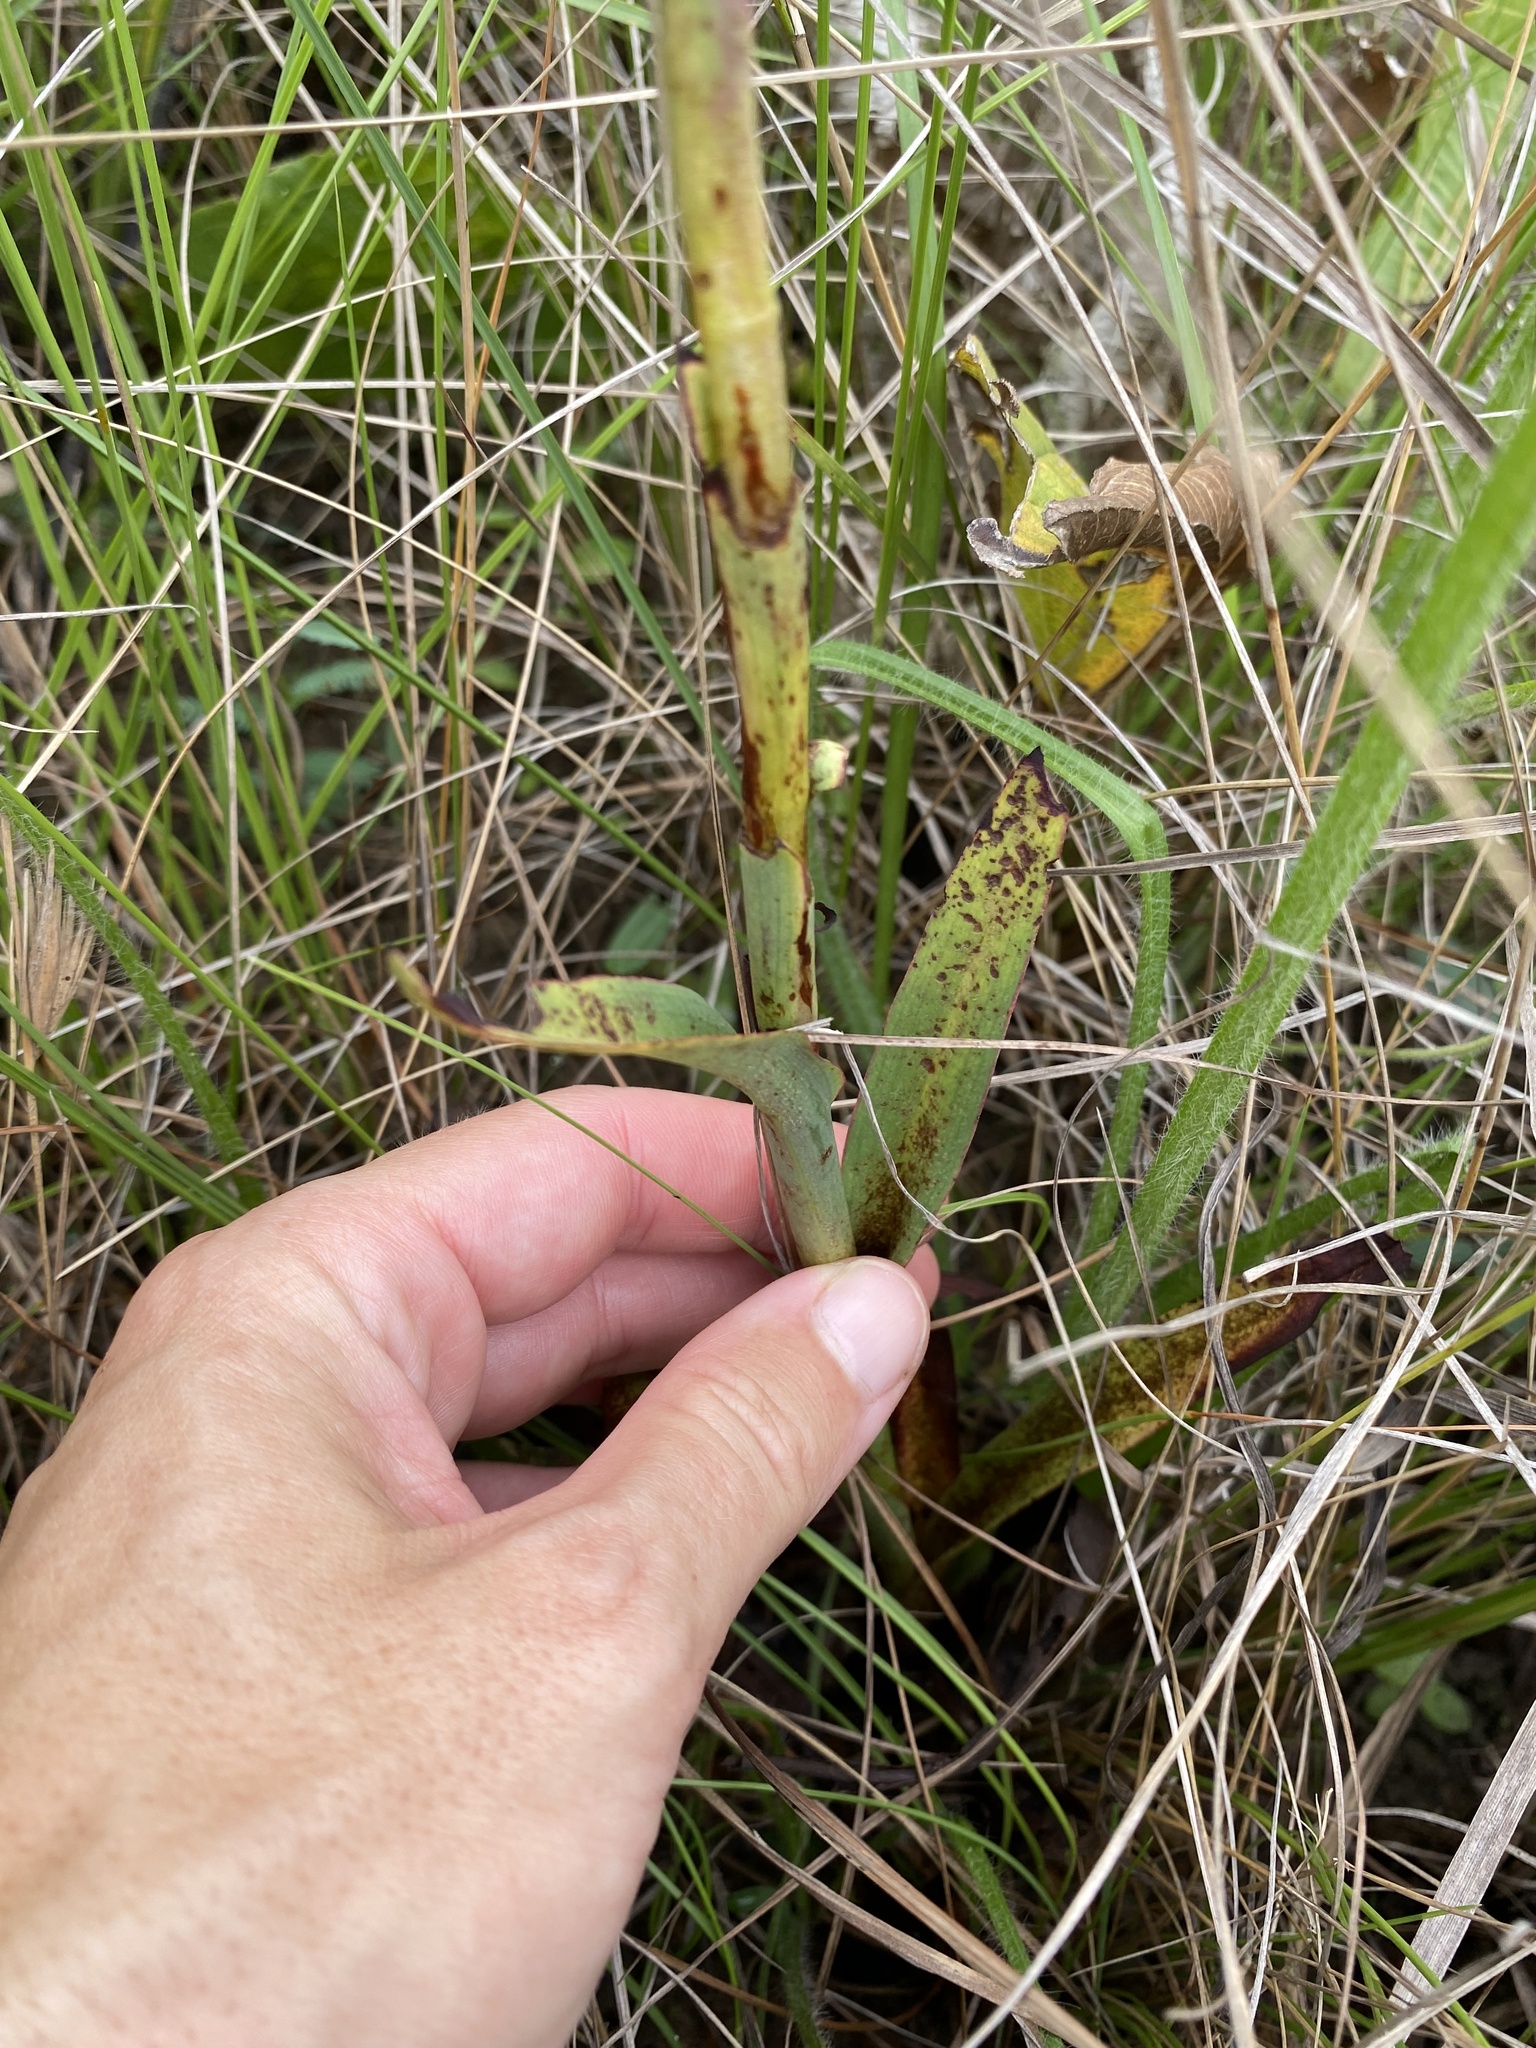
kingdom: Plantae
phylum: Tracheophyta
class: Liliopsida
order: Asparagales
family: Orchidaceae
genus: Disa
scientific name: Disa woodii
